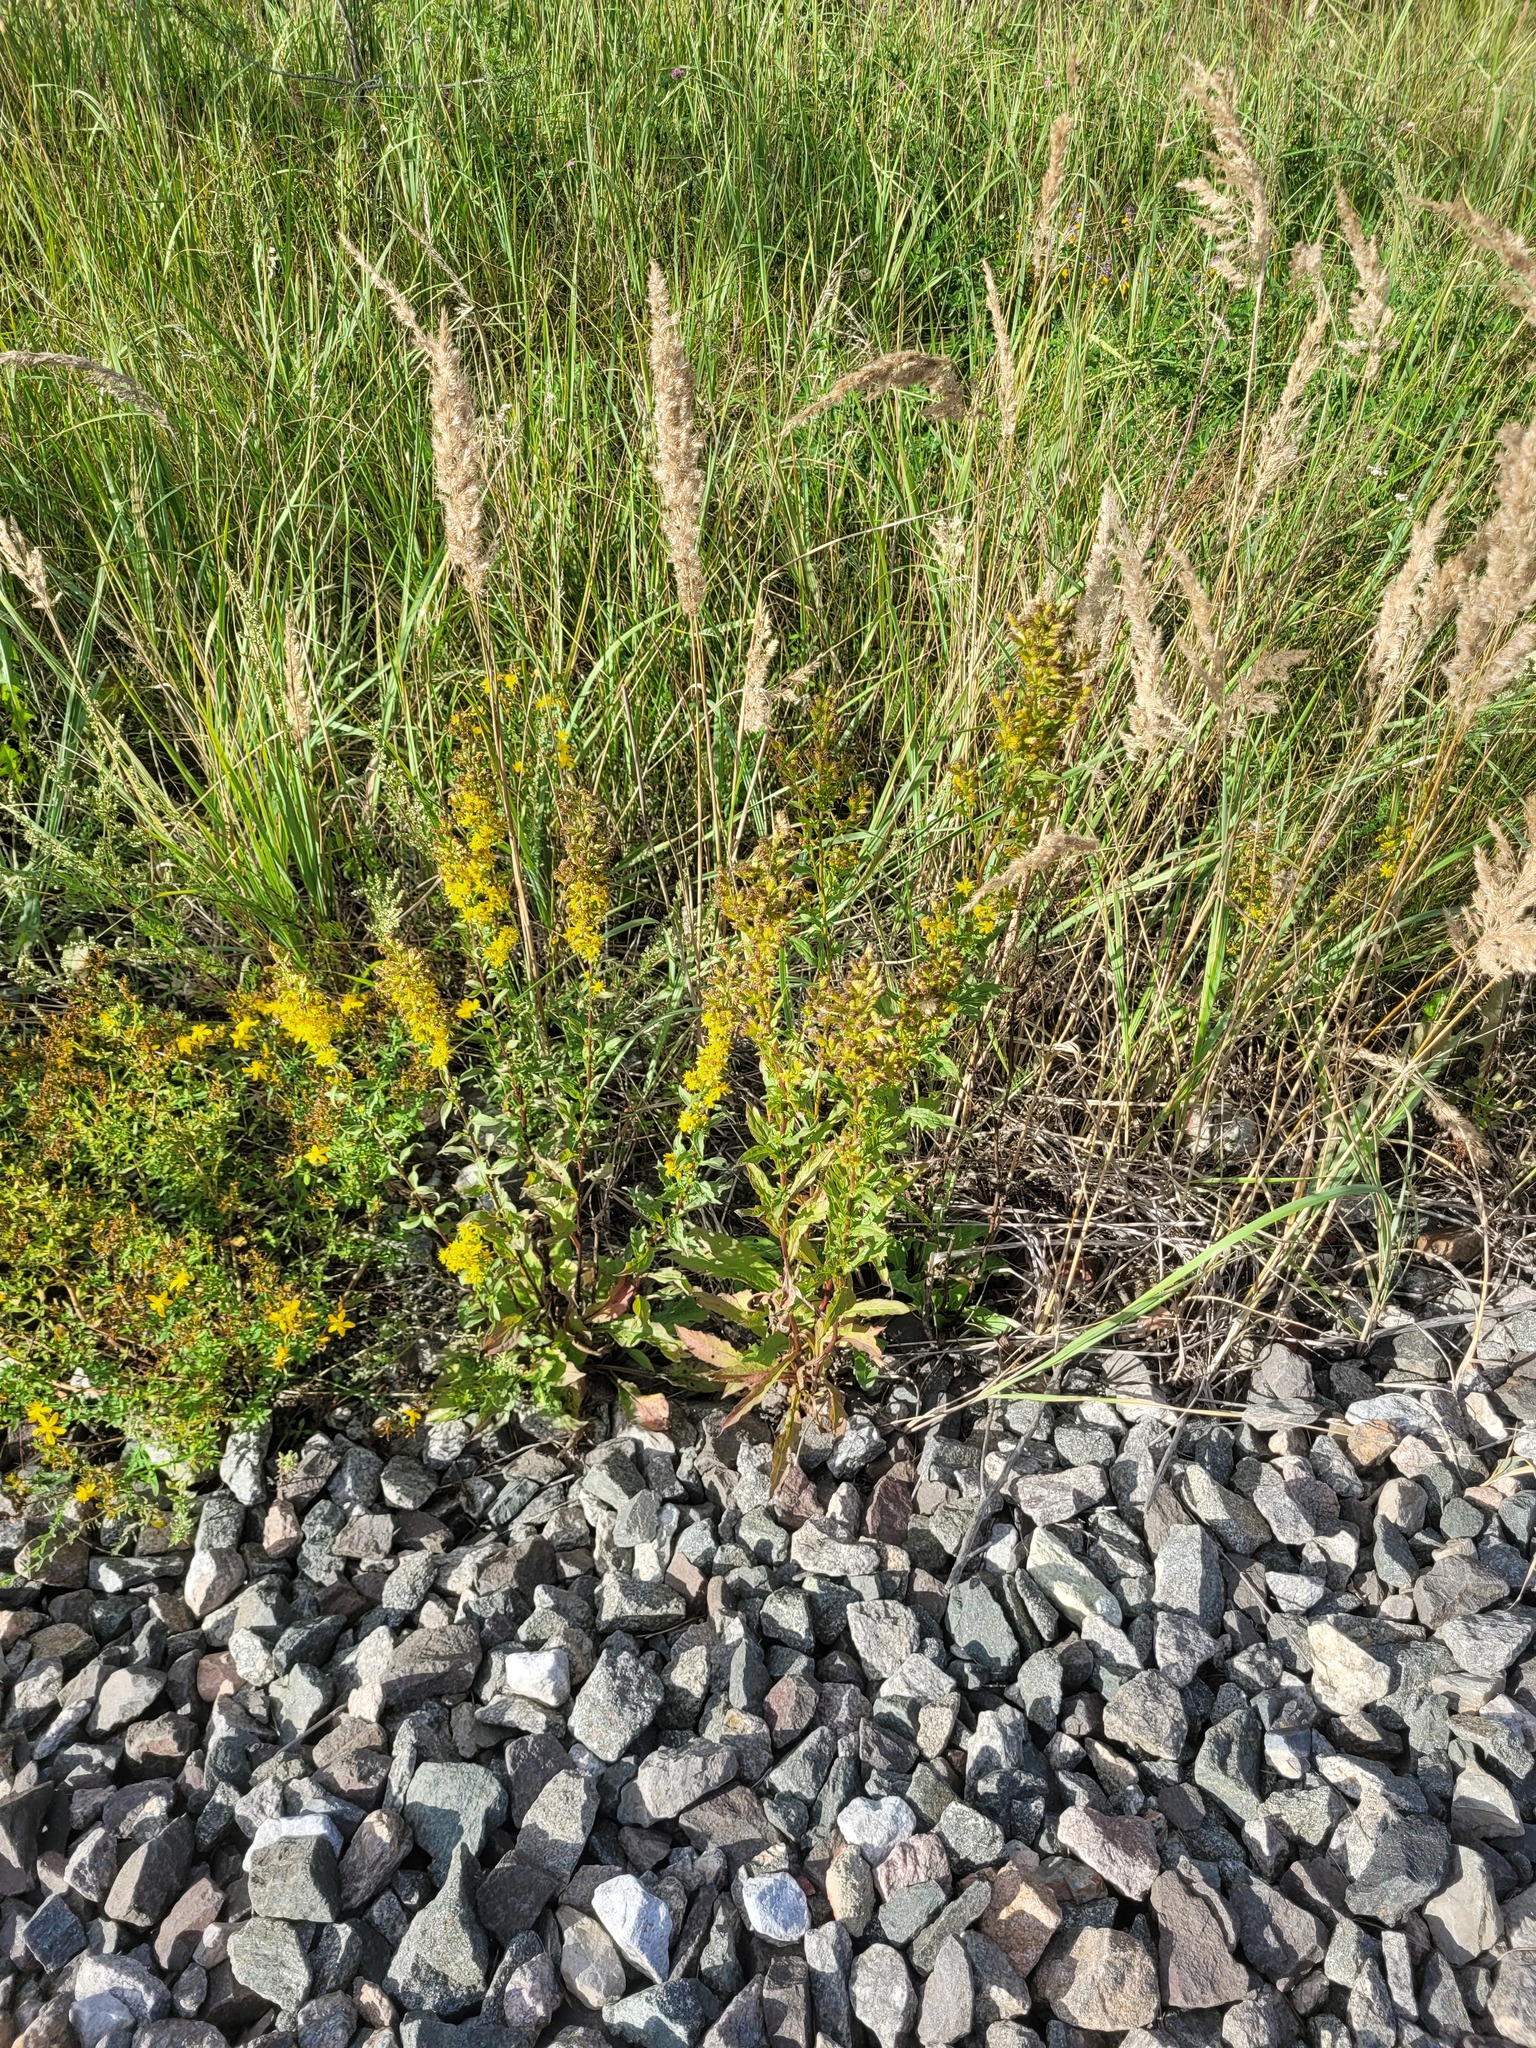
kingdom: Plantae
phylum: Tracheophyta
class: Magnoliopsida
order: Asterales
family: Asteraceae
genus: Solidago
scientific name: Solidago virgaurea
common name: Goldenrod
